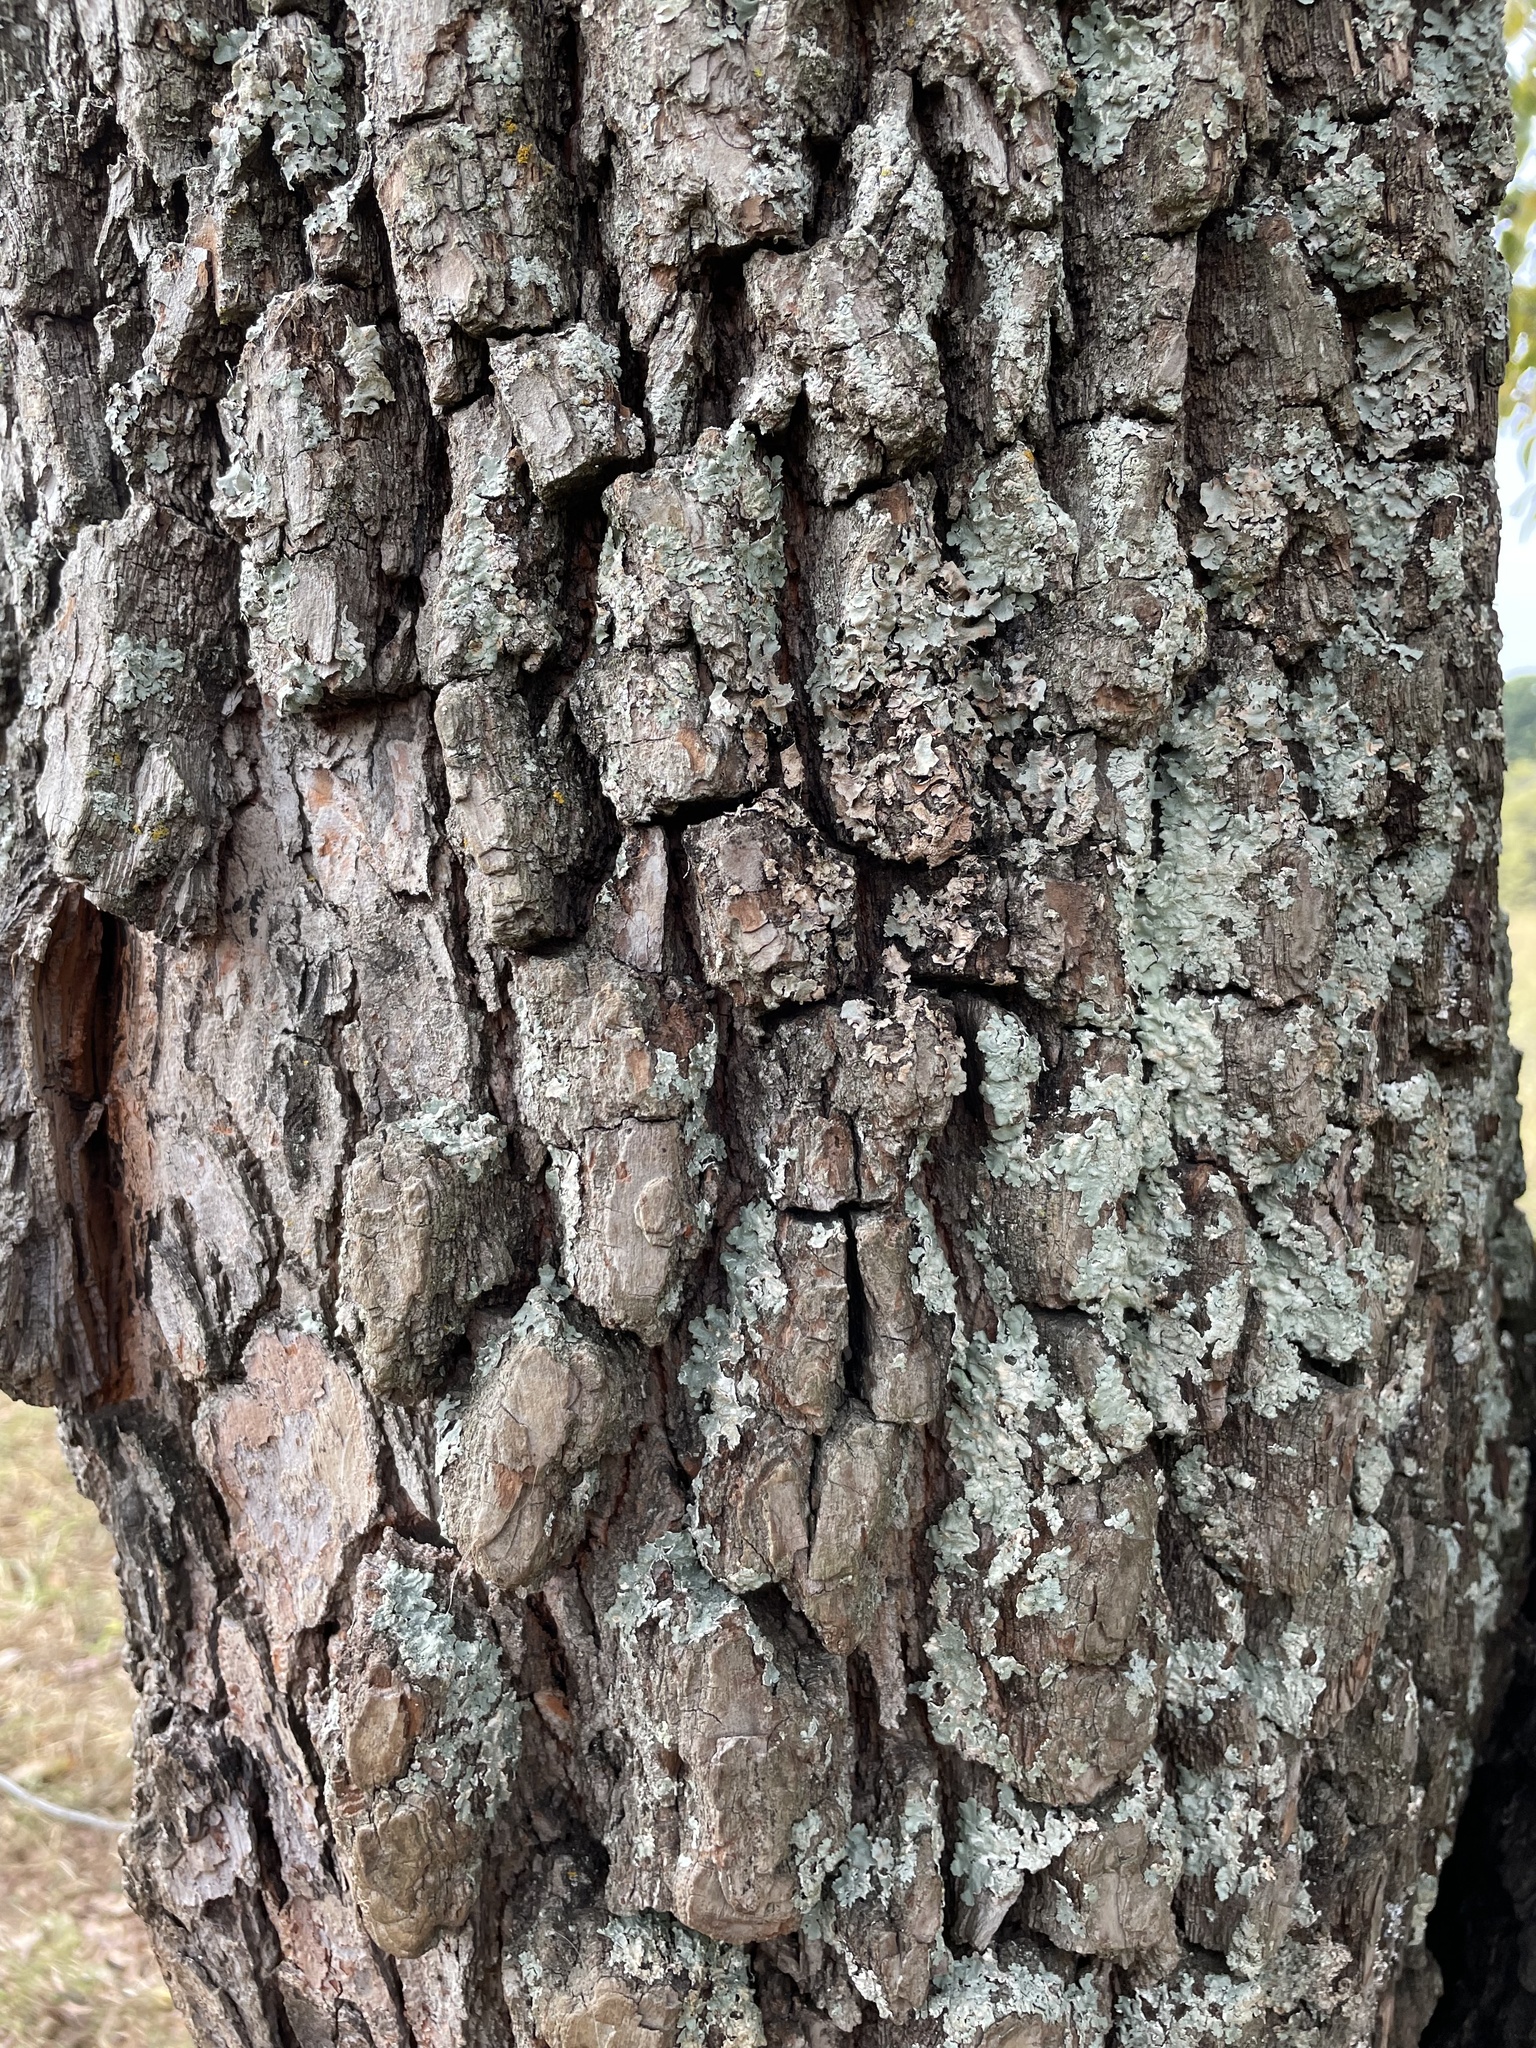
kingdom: Plantae
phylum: Tracheophyta
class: Magnoliopsida
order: Ericales
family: Ebenaceae
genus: Diospyros
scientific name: Diospyros virginiana
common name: Persimmon
